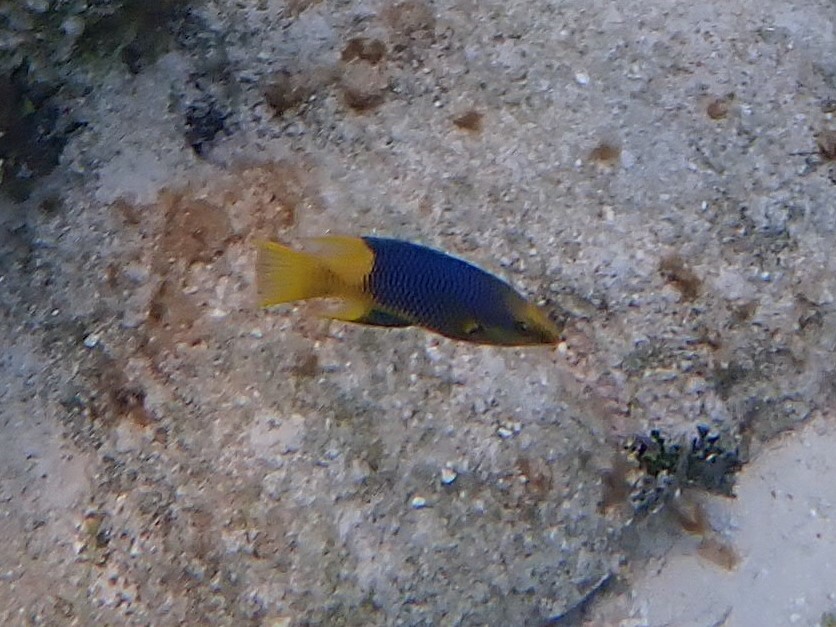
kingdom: Animalia
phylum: Chordata
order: Perciformes
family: Labridae
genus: Bodianus
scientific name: Bodianus rufus
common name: Spanish hogfish
